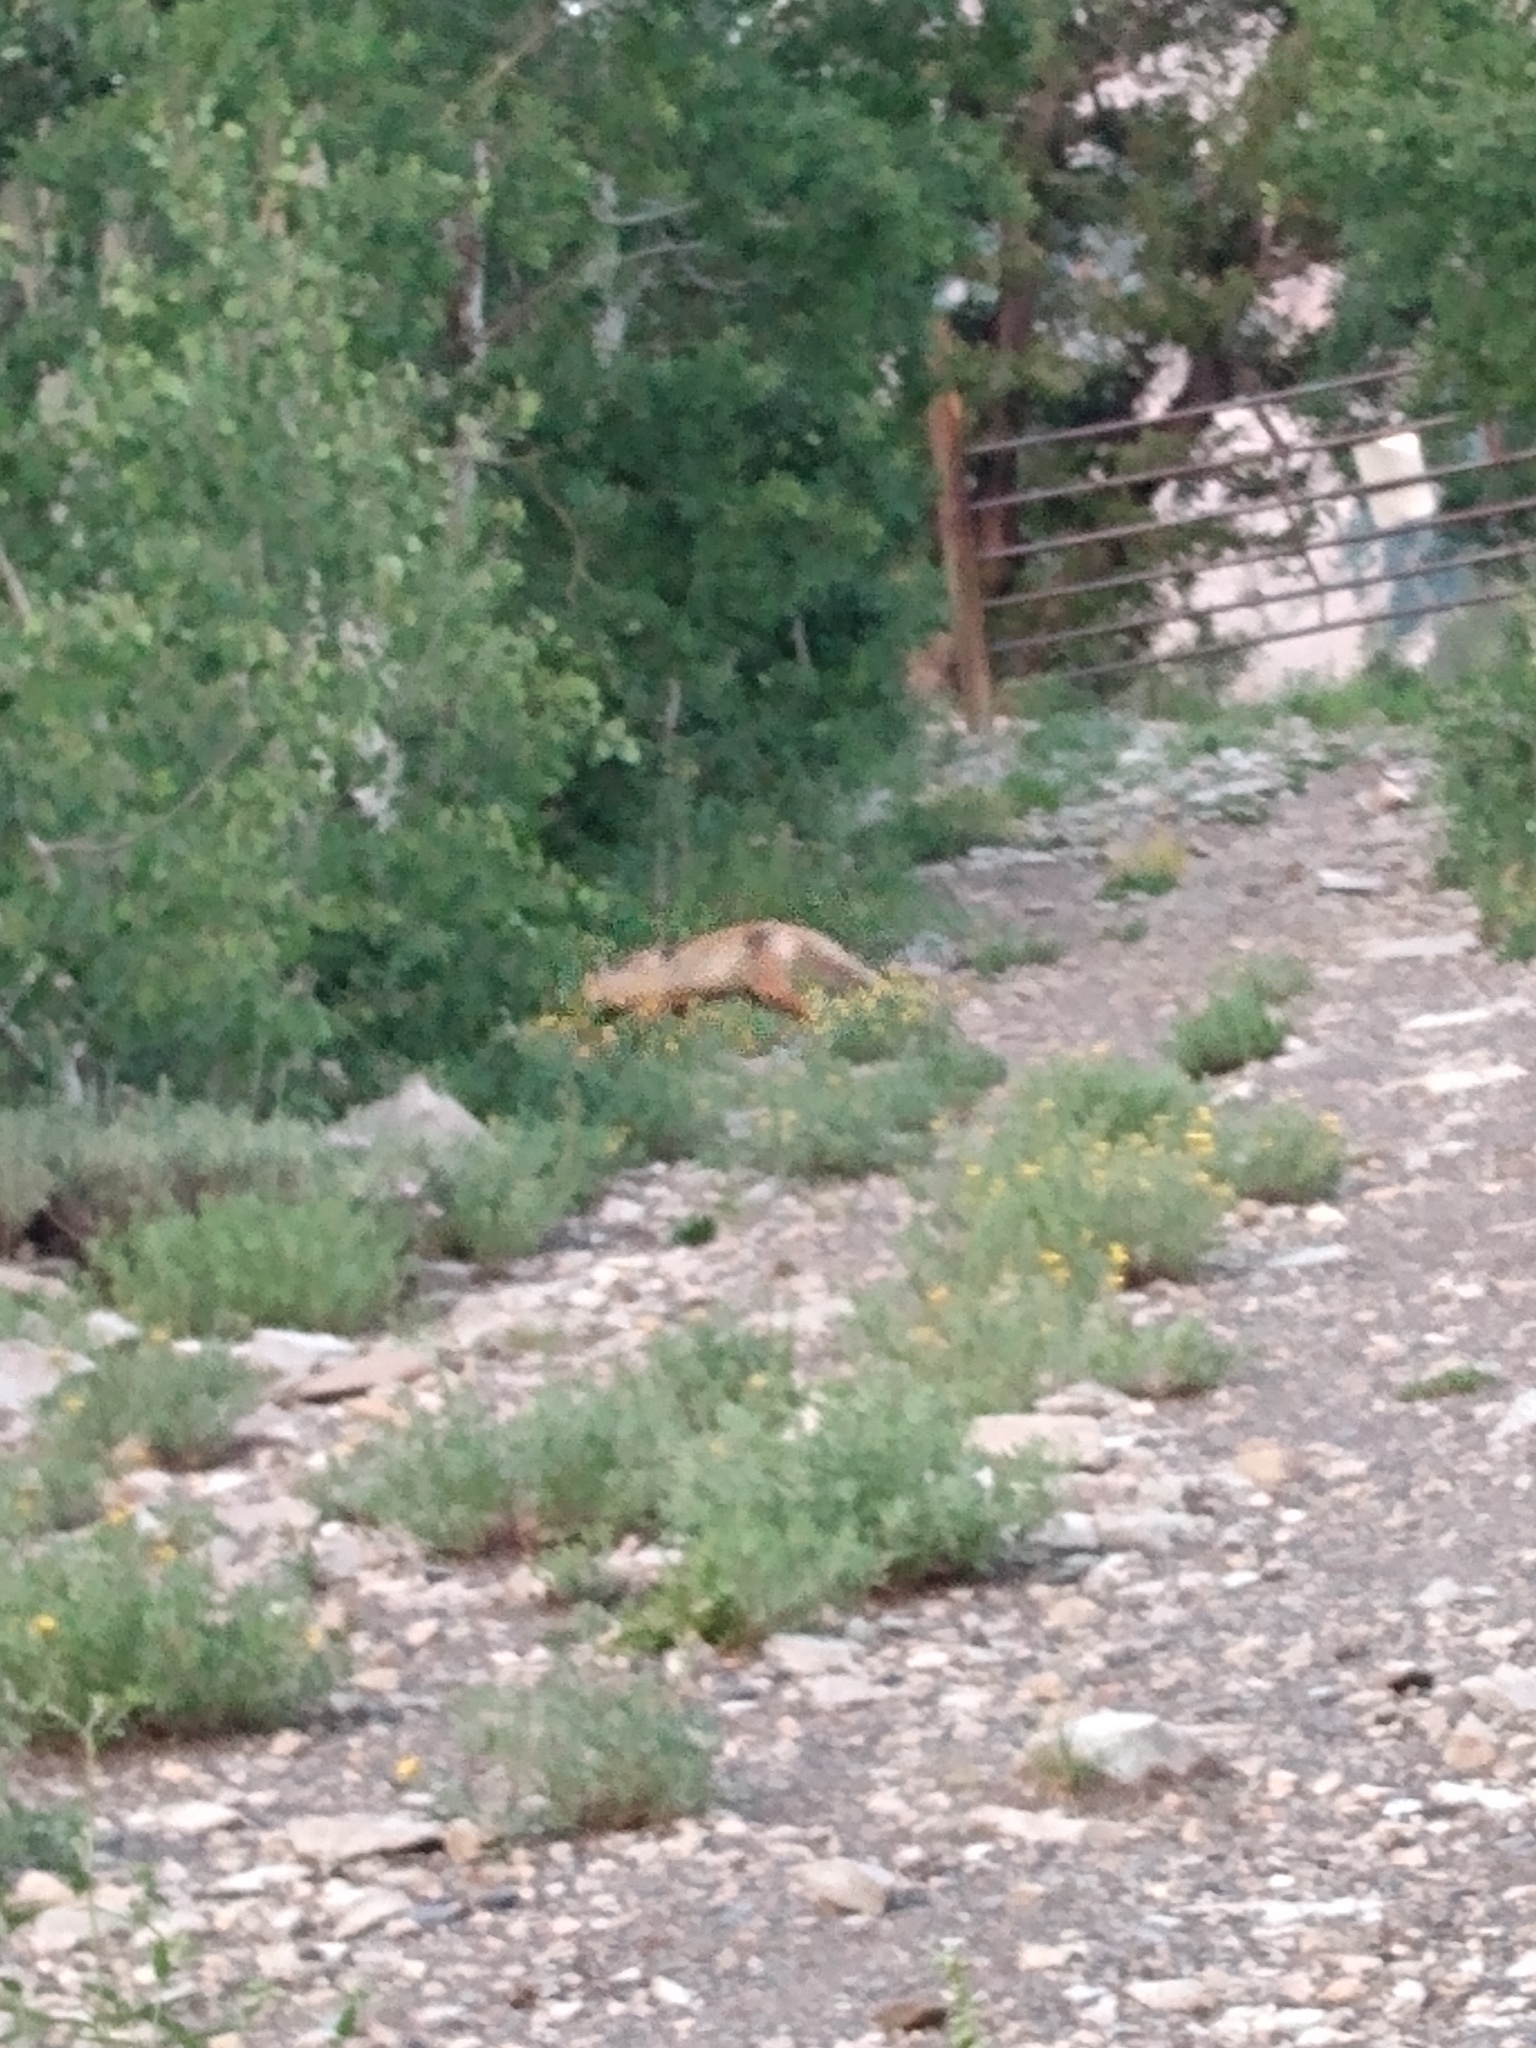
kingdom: Animalia
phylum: Chordata
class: Mammalia
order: Carnivora
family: Canidae
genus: Vulpes
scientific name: Vulpes vulpes
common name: Red fox
